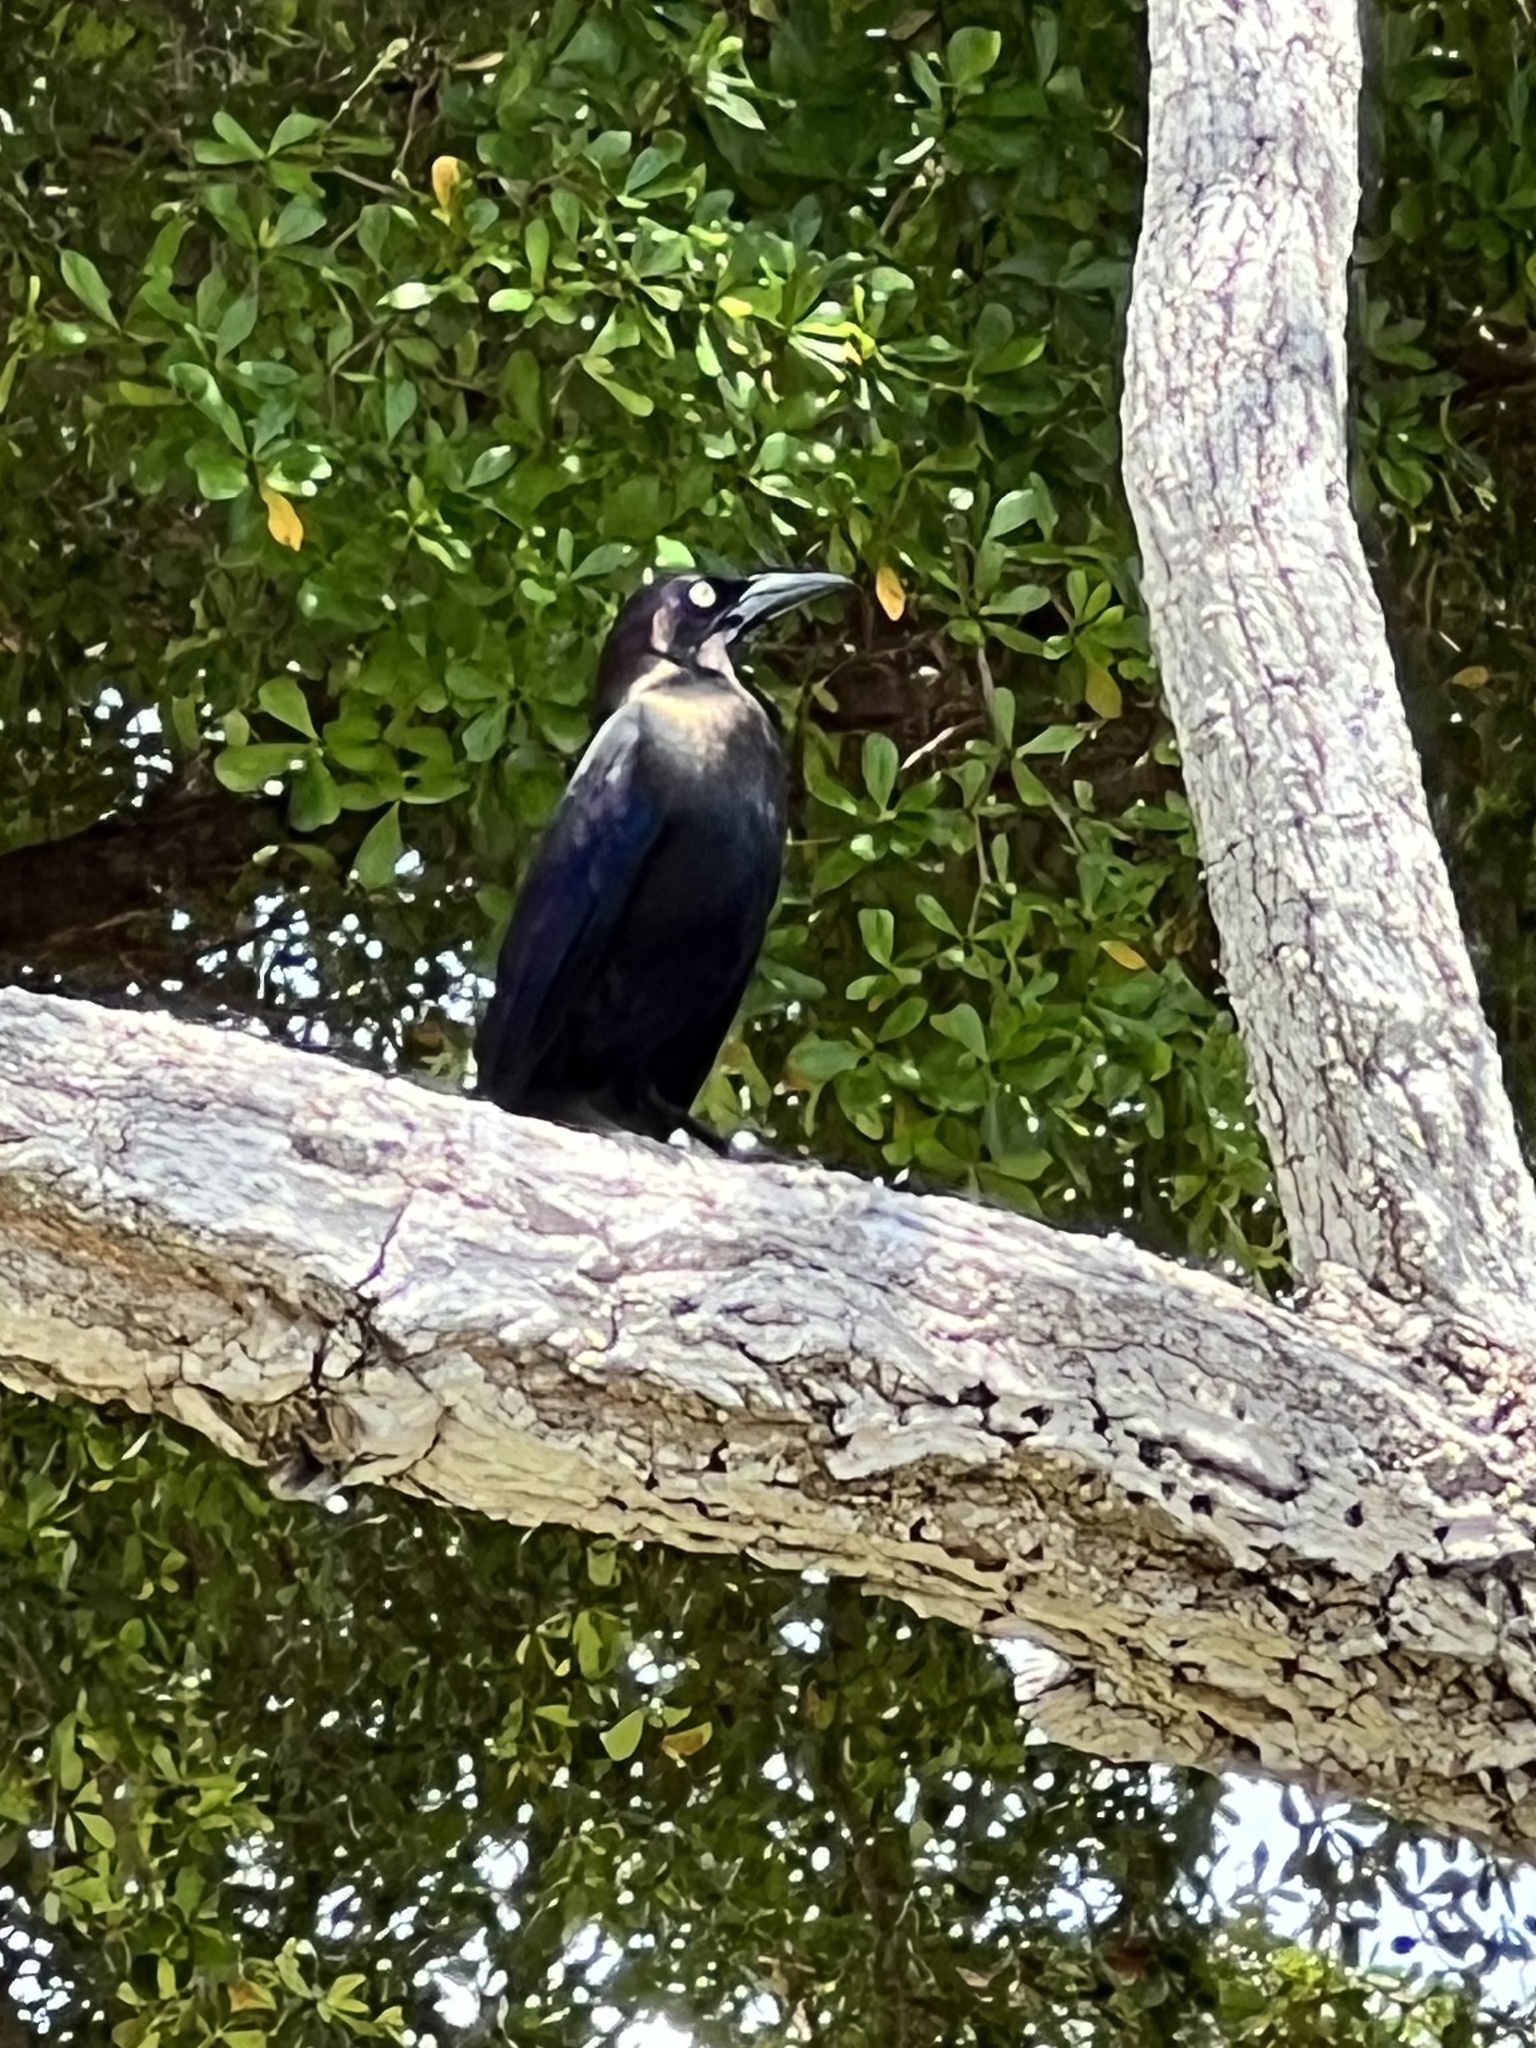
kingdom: Animalia
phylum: Chordata
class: Aves
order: Passeriformes
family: Icteridae
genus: Quiscalus
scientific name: Quiscalus quiscula
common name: Common grackle
